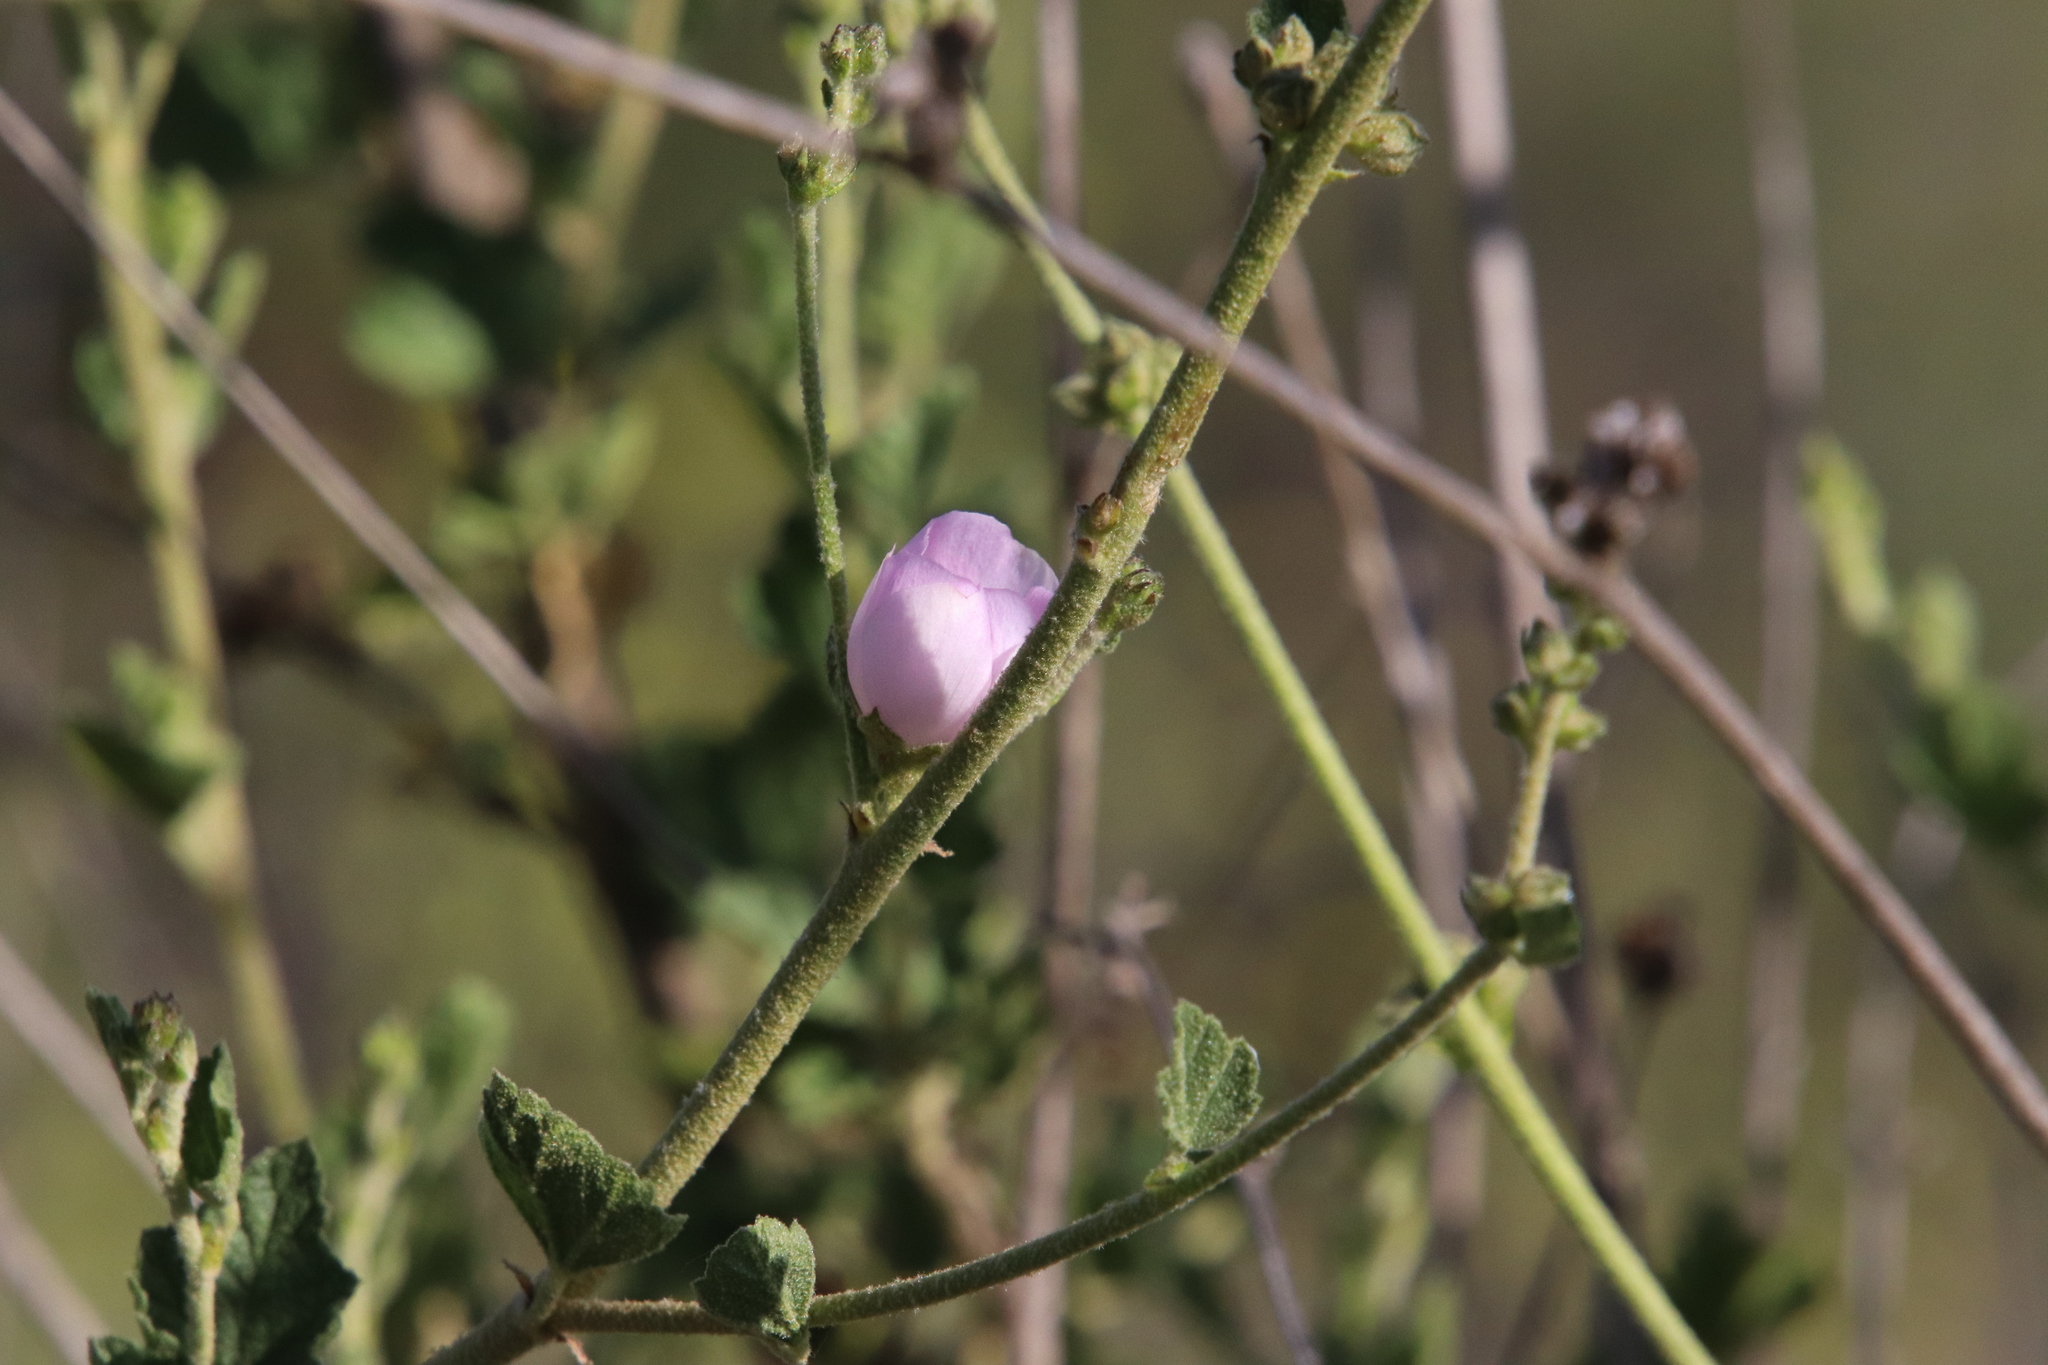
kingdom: Plantae
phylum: Tracheophyta
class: Magnoliopsida
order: Malvales
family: Malvaceae
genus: Malacothamnus
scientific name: Malacothamnus fasciculatus
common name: Sant cruz island bush-mallow
